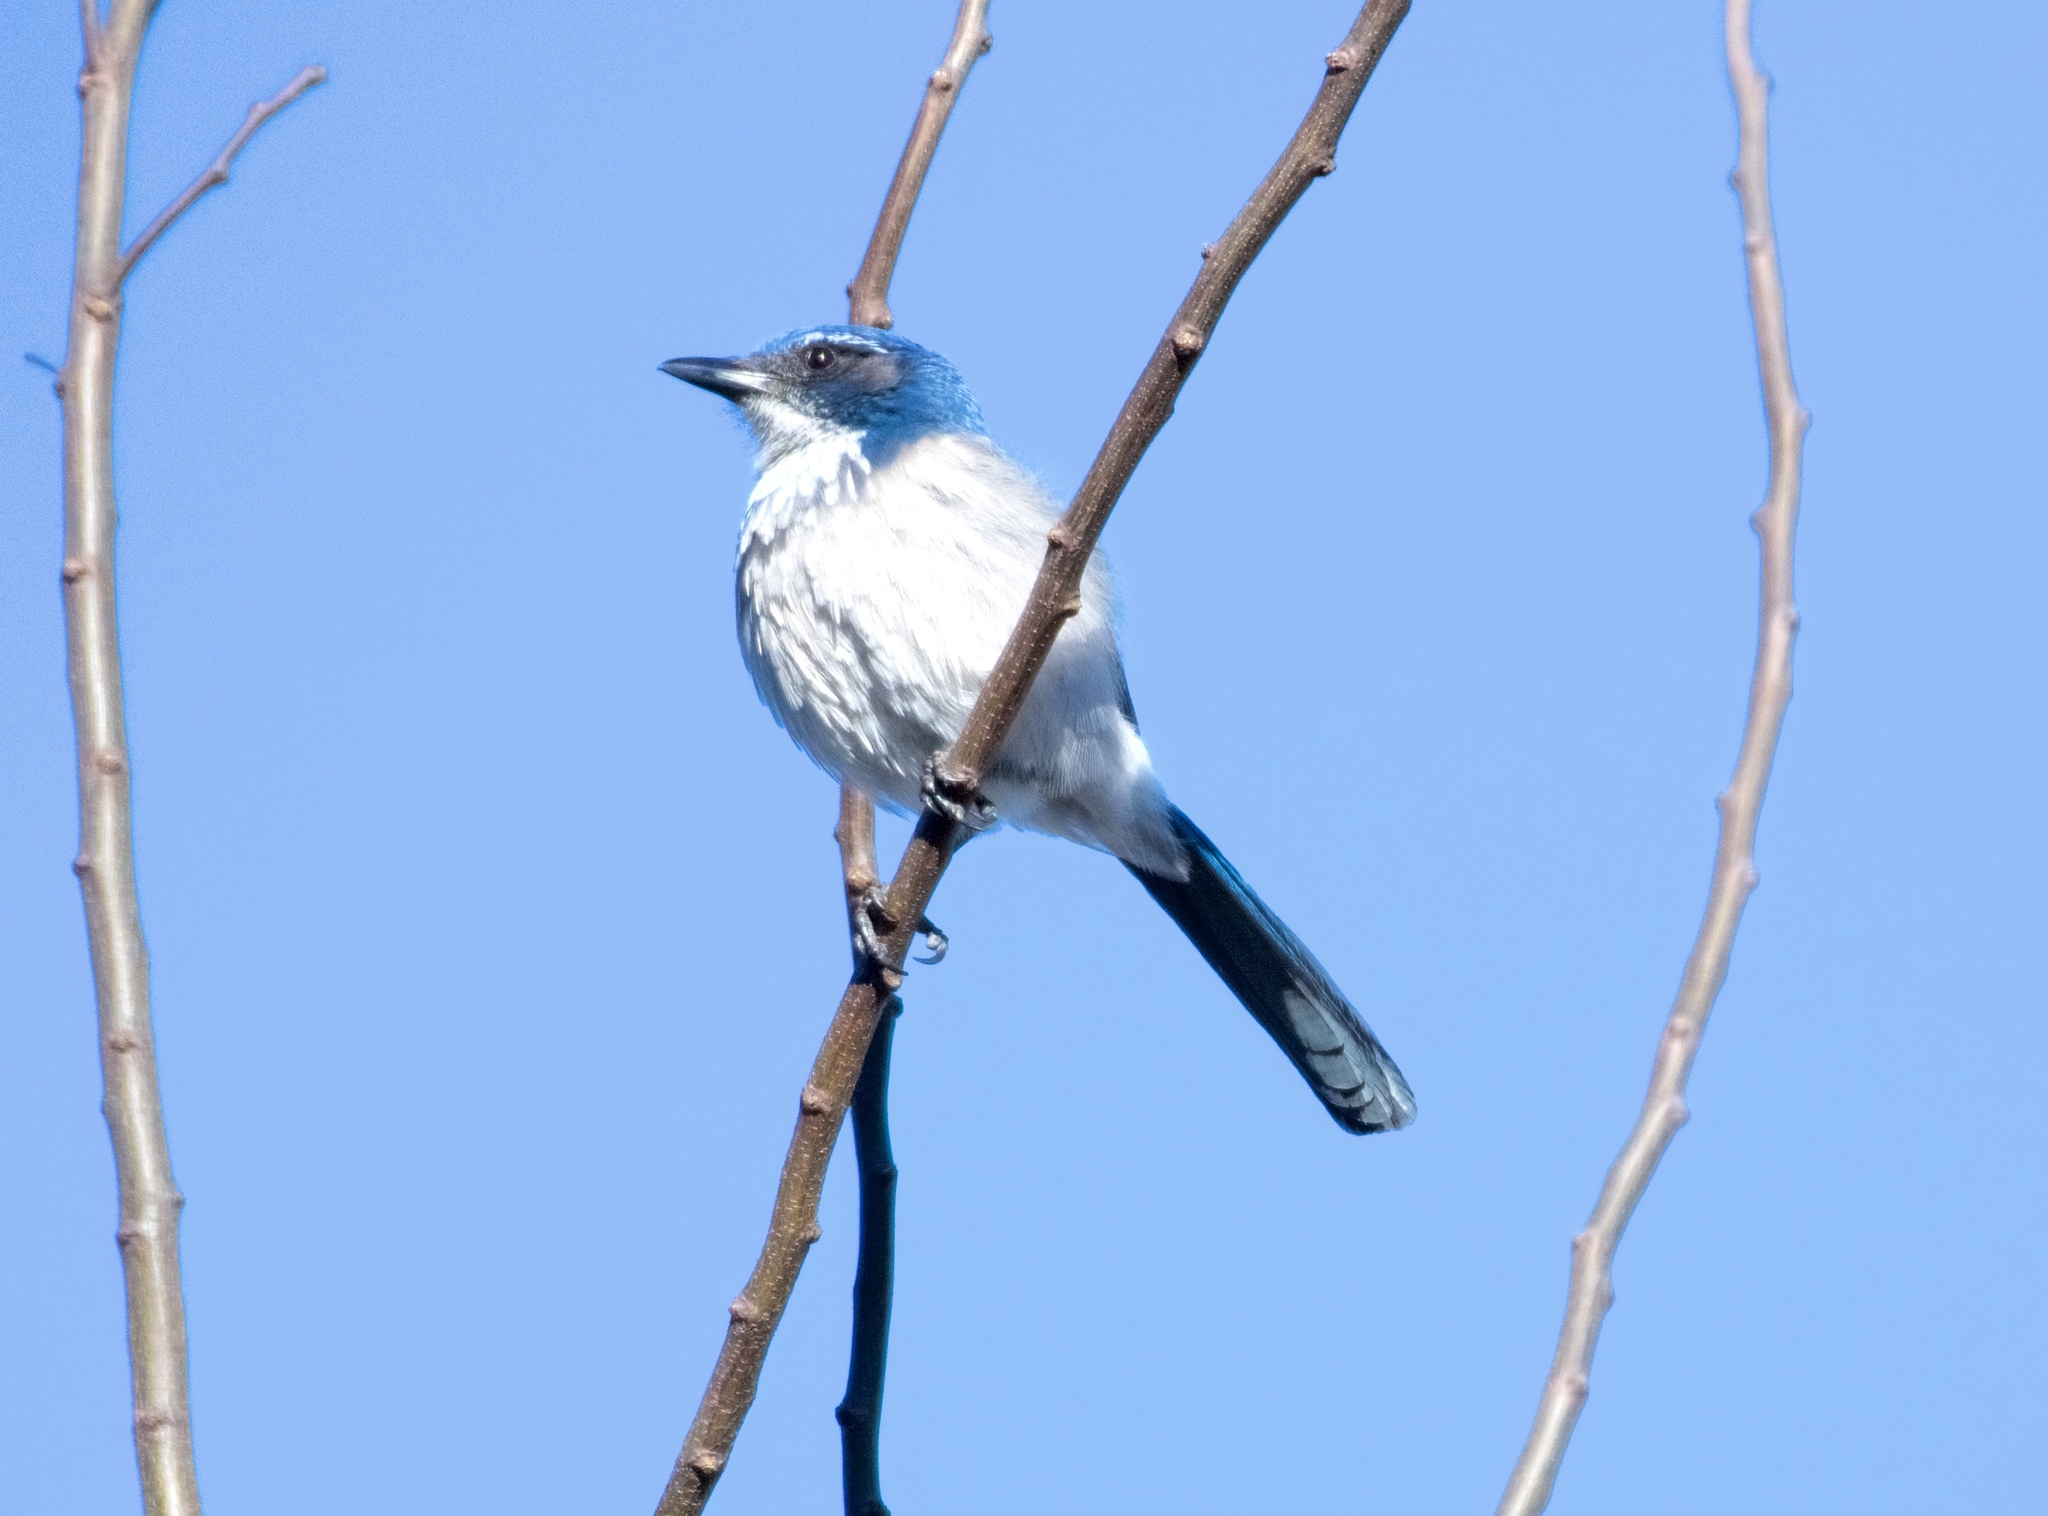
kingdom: Animalia
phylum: Chordata
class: Aves
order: Passeriformes
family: Corvidae
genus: Aphelocoma
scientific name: Aphelocoma californica
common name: California scrub-jay
